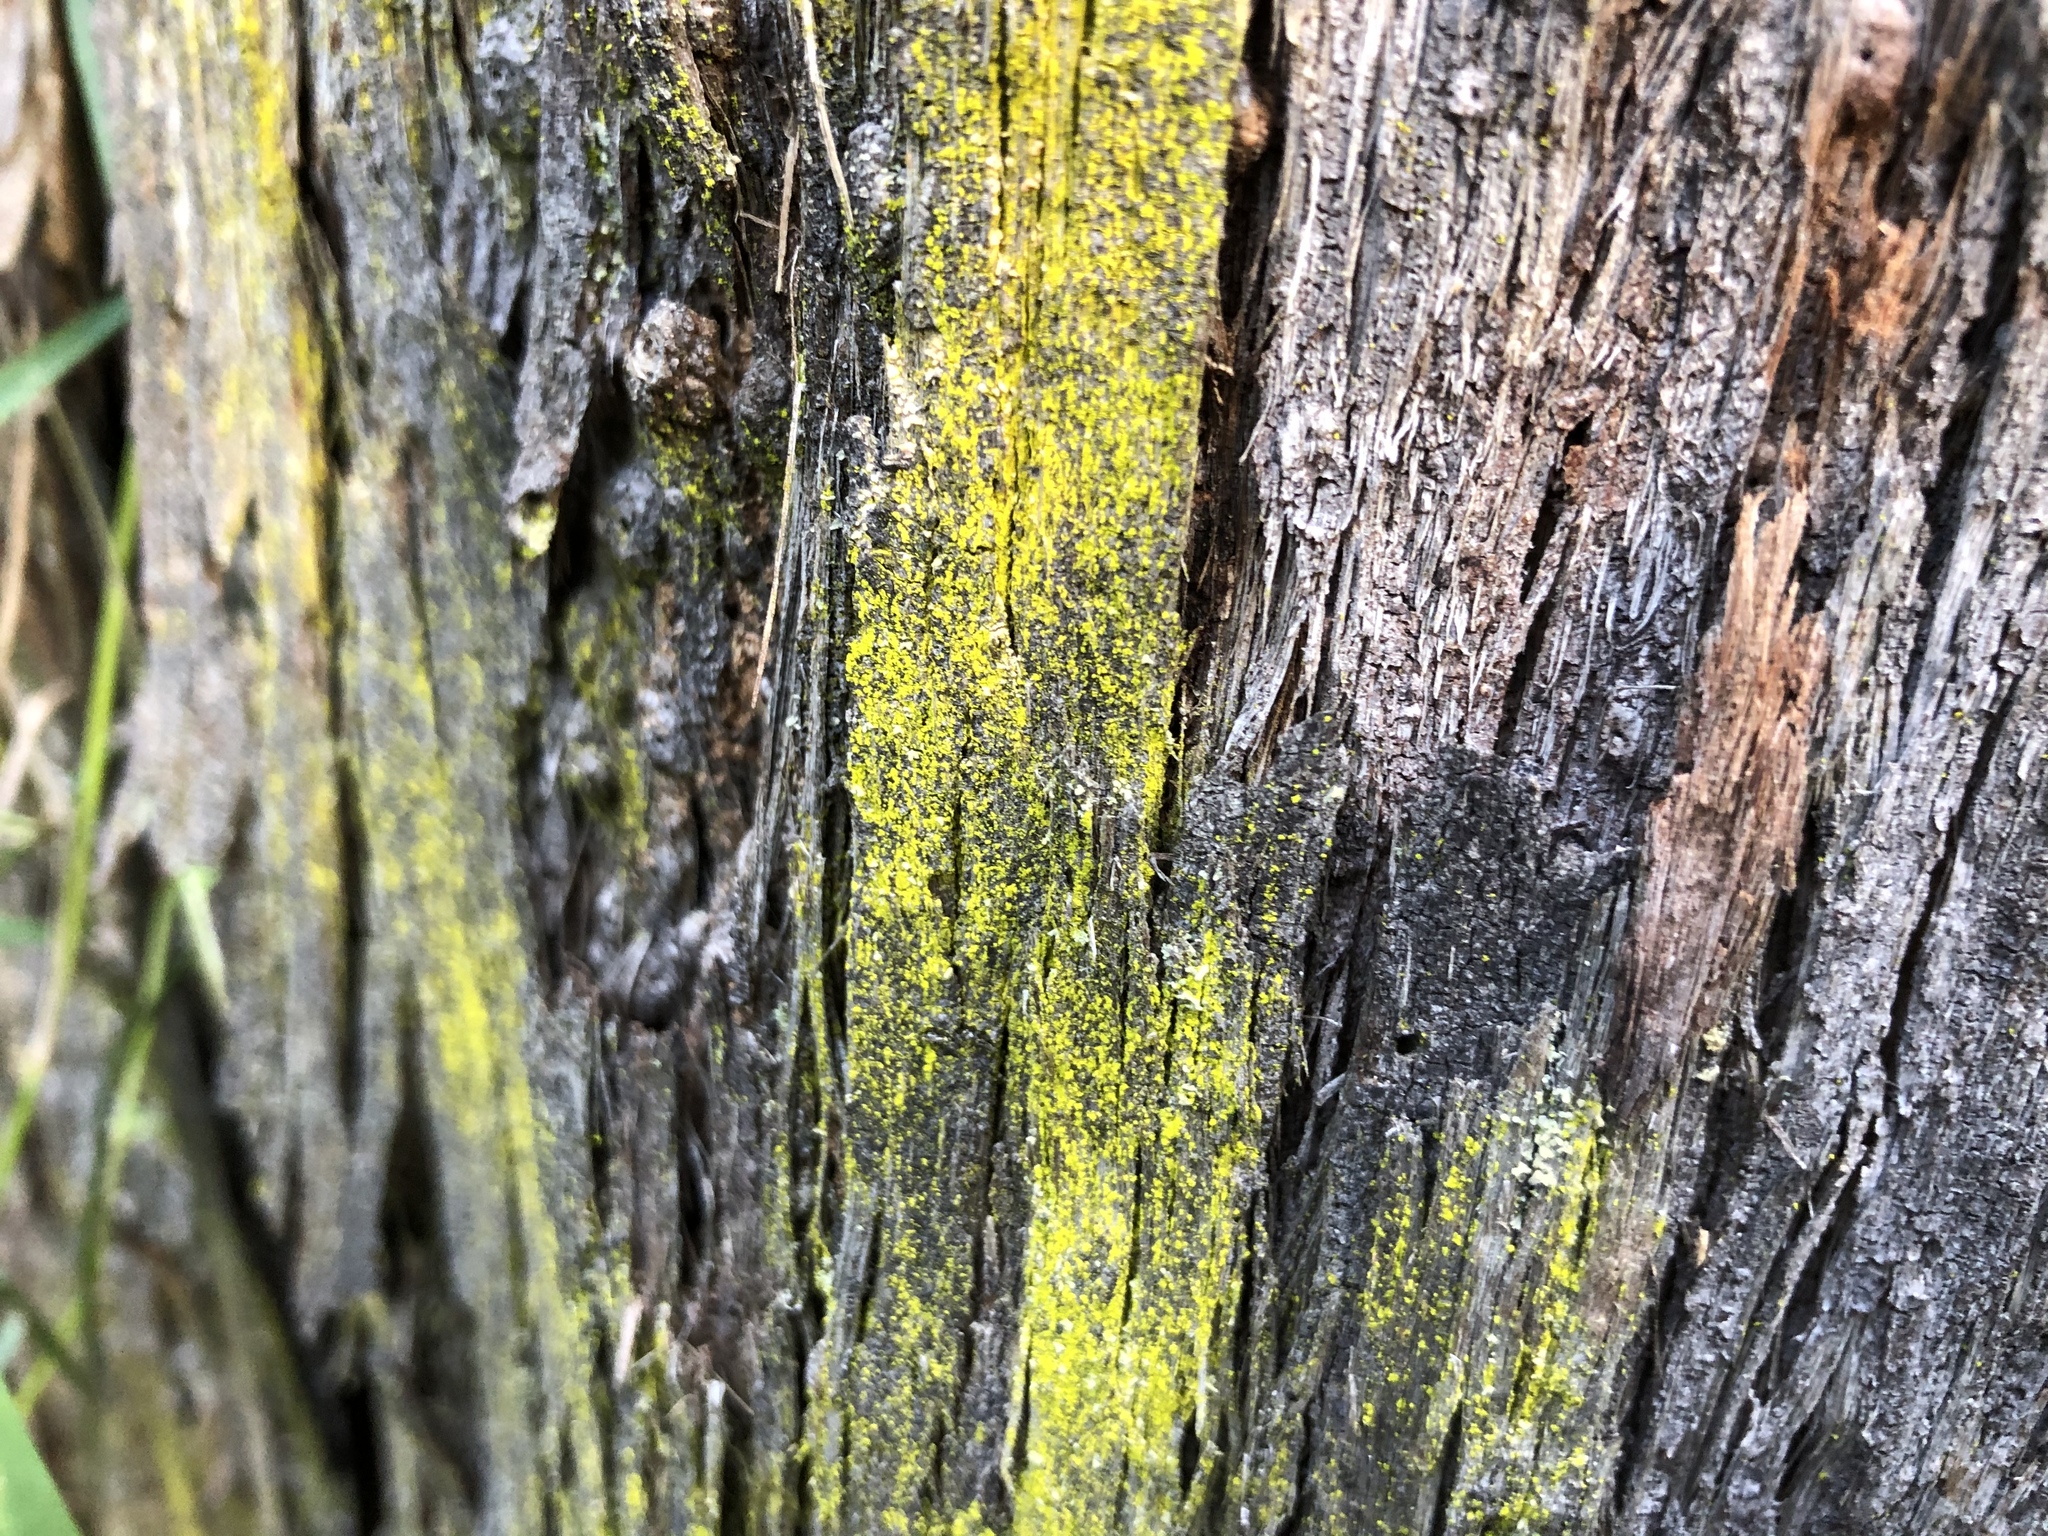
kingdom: Fungi
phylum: Ascomycota
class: Arthoniomycetes
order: Arthoniales
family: Chrysotrichaceae
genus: Chrysothrix
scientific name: Chrysothrix candelaris
